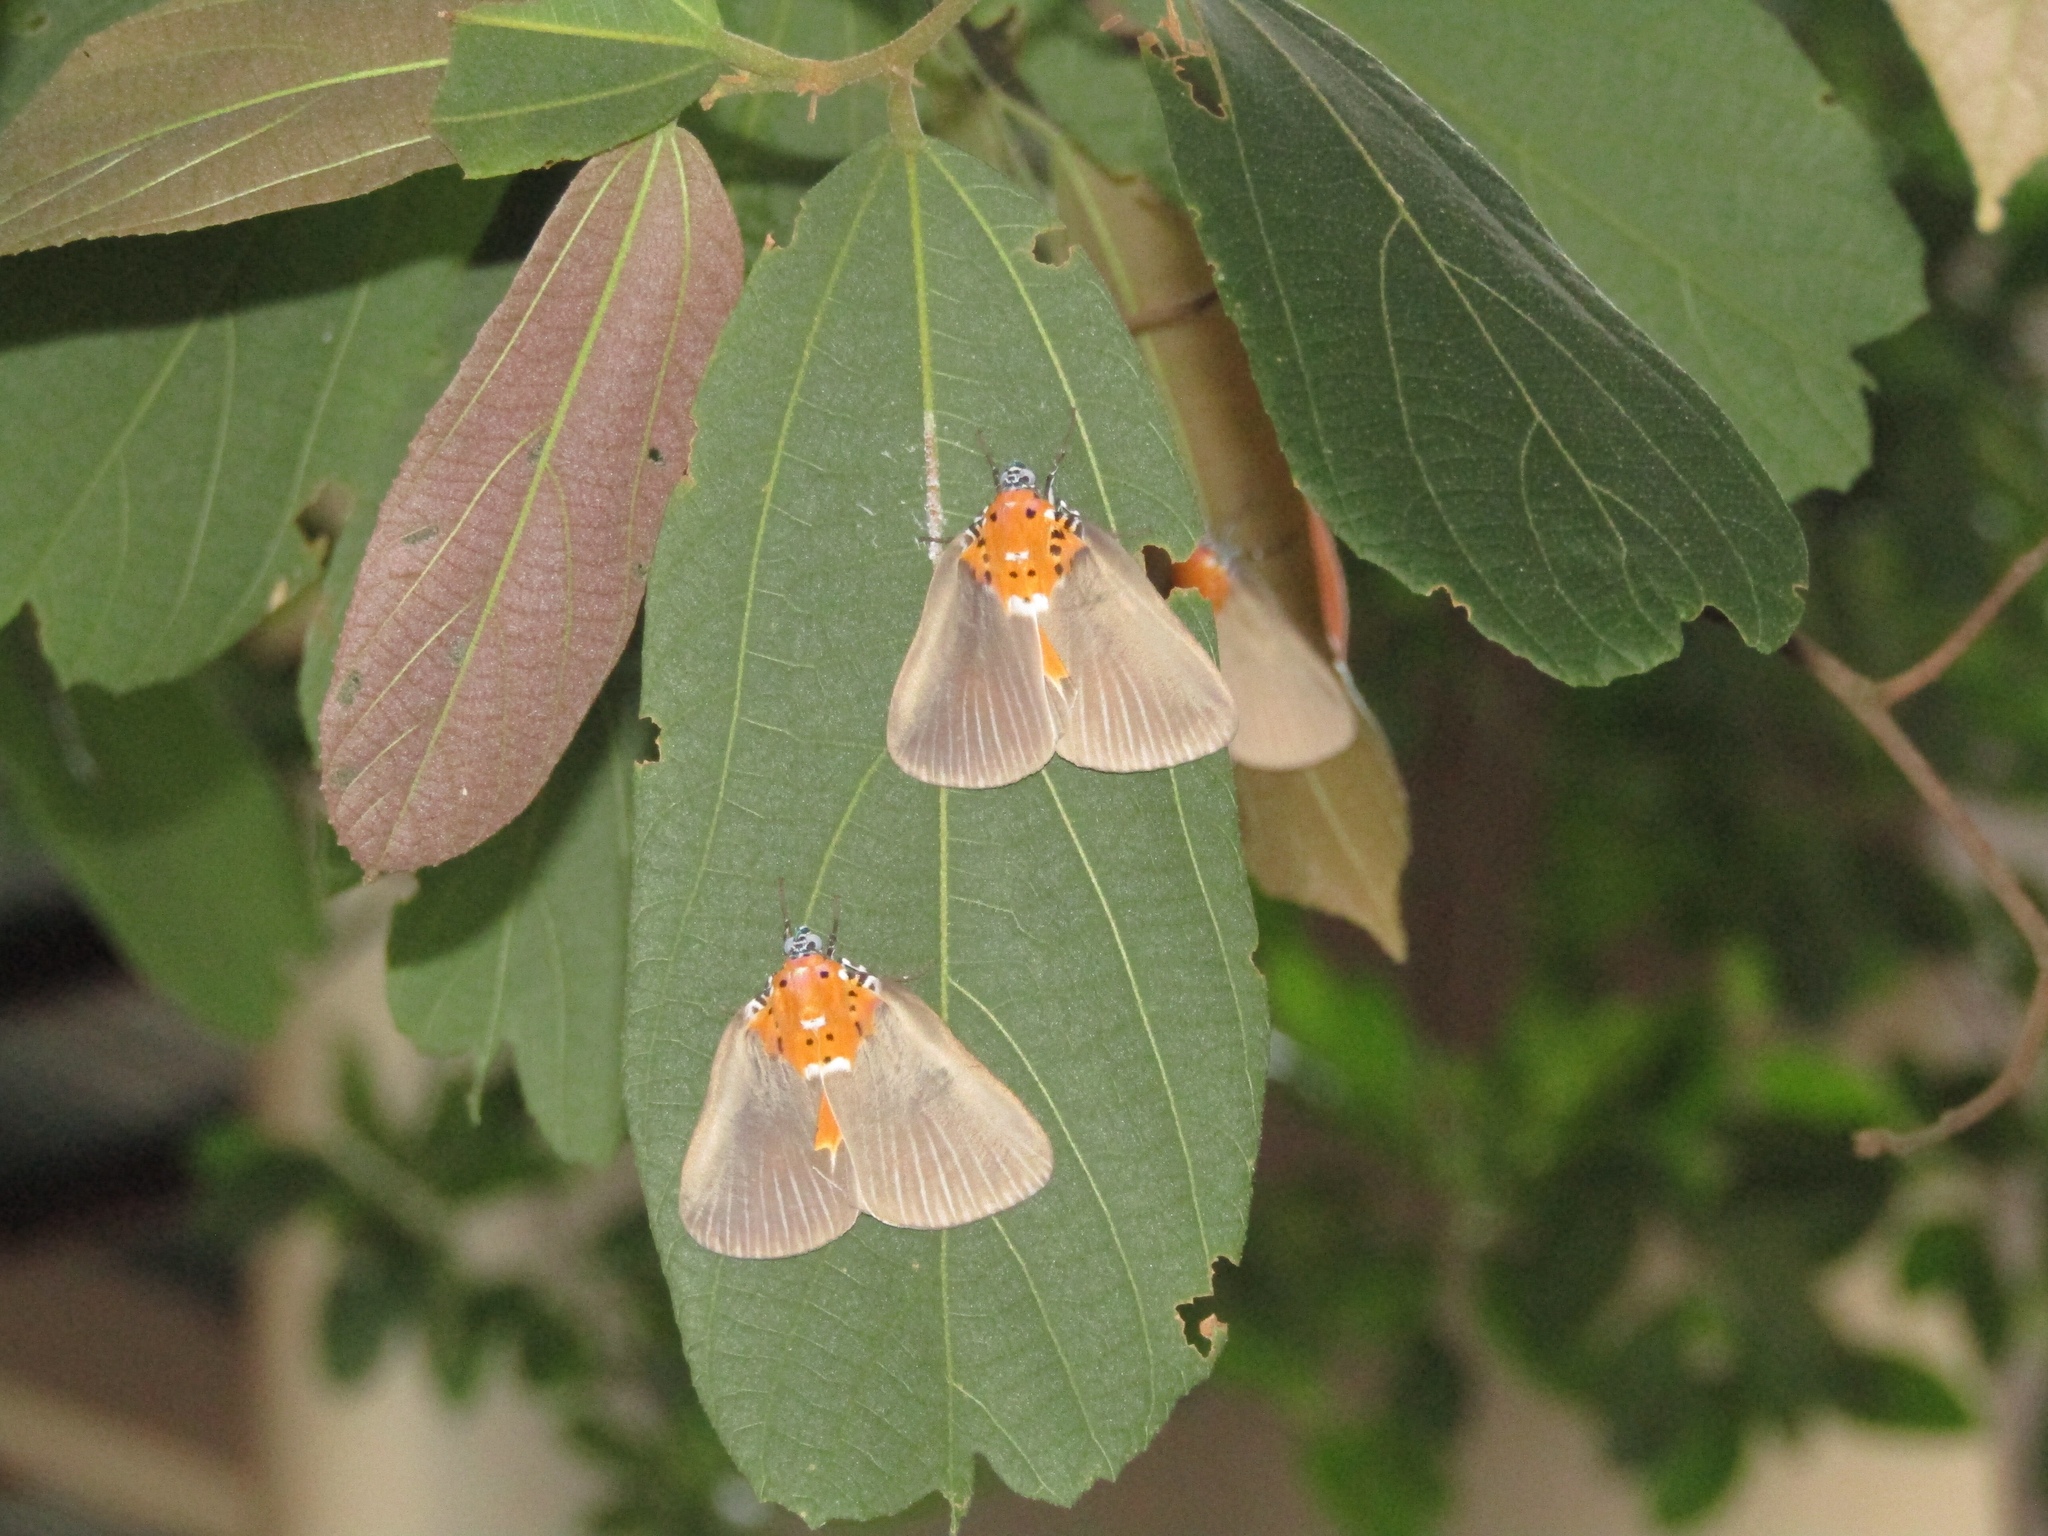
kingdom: Animalia
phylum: Arthropoda
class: Insecta
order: Lepidoptera
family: Erebidae
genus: Peridrome
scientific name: Peridrome orbicularis
